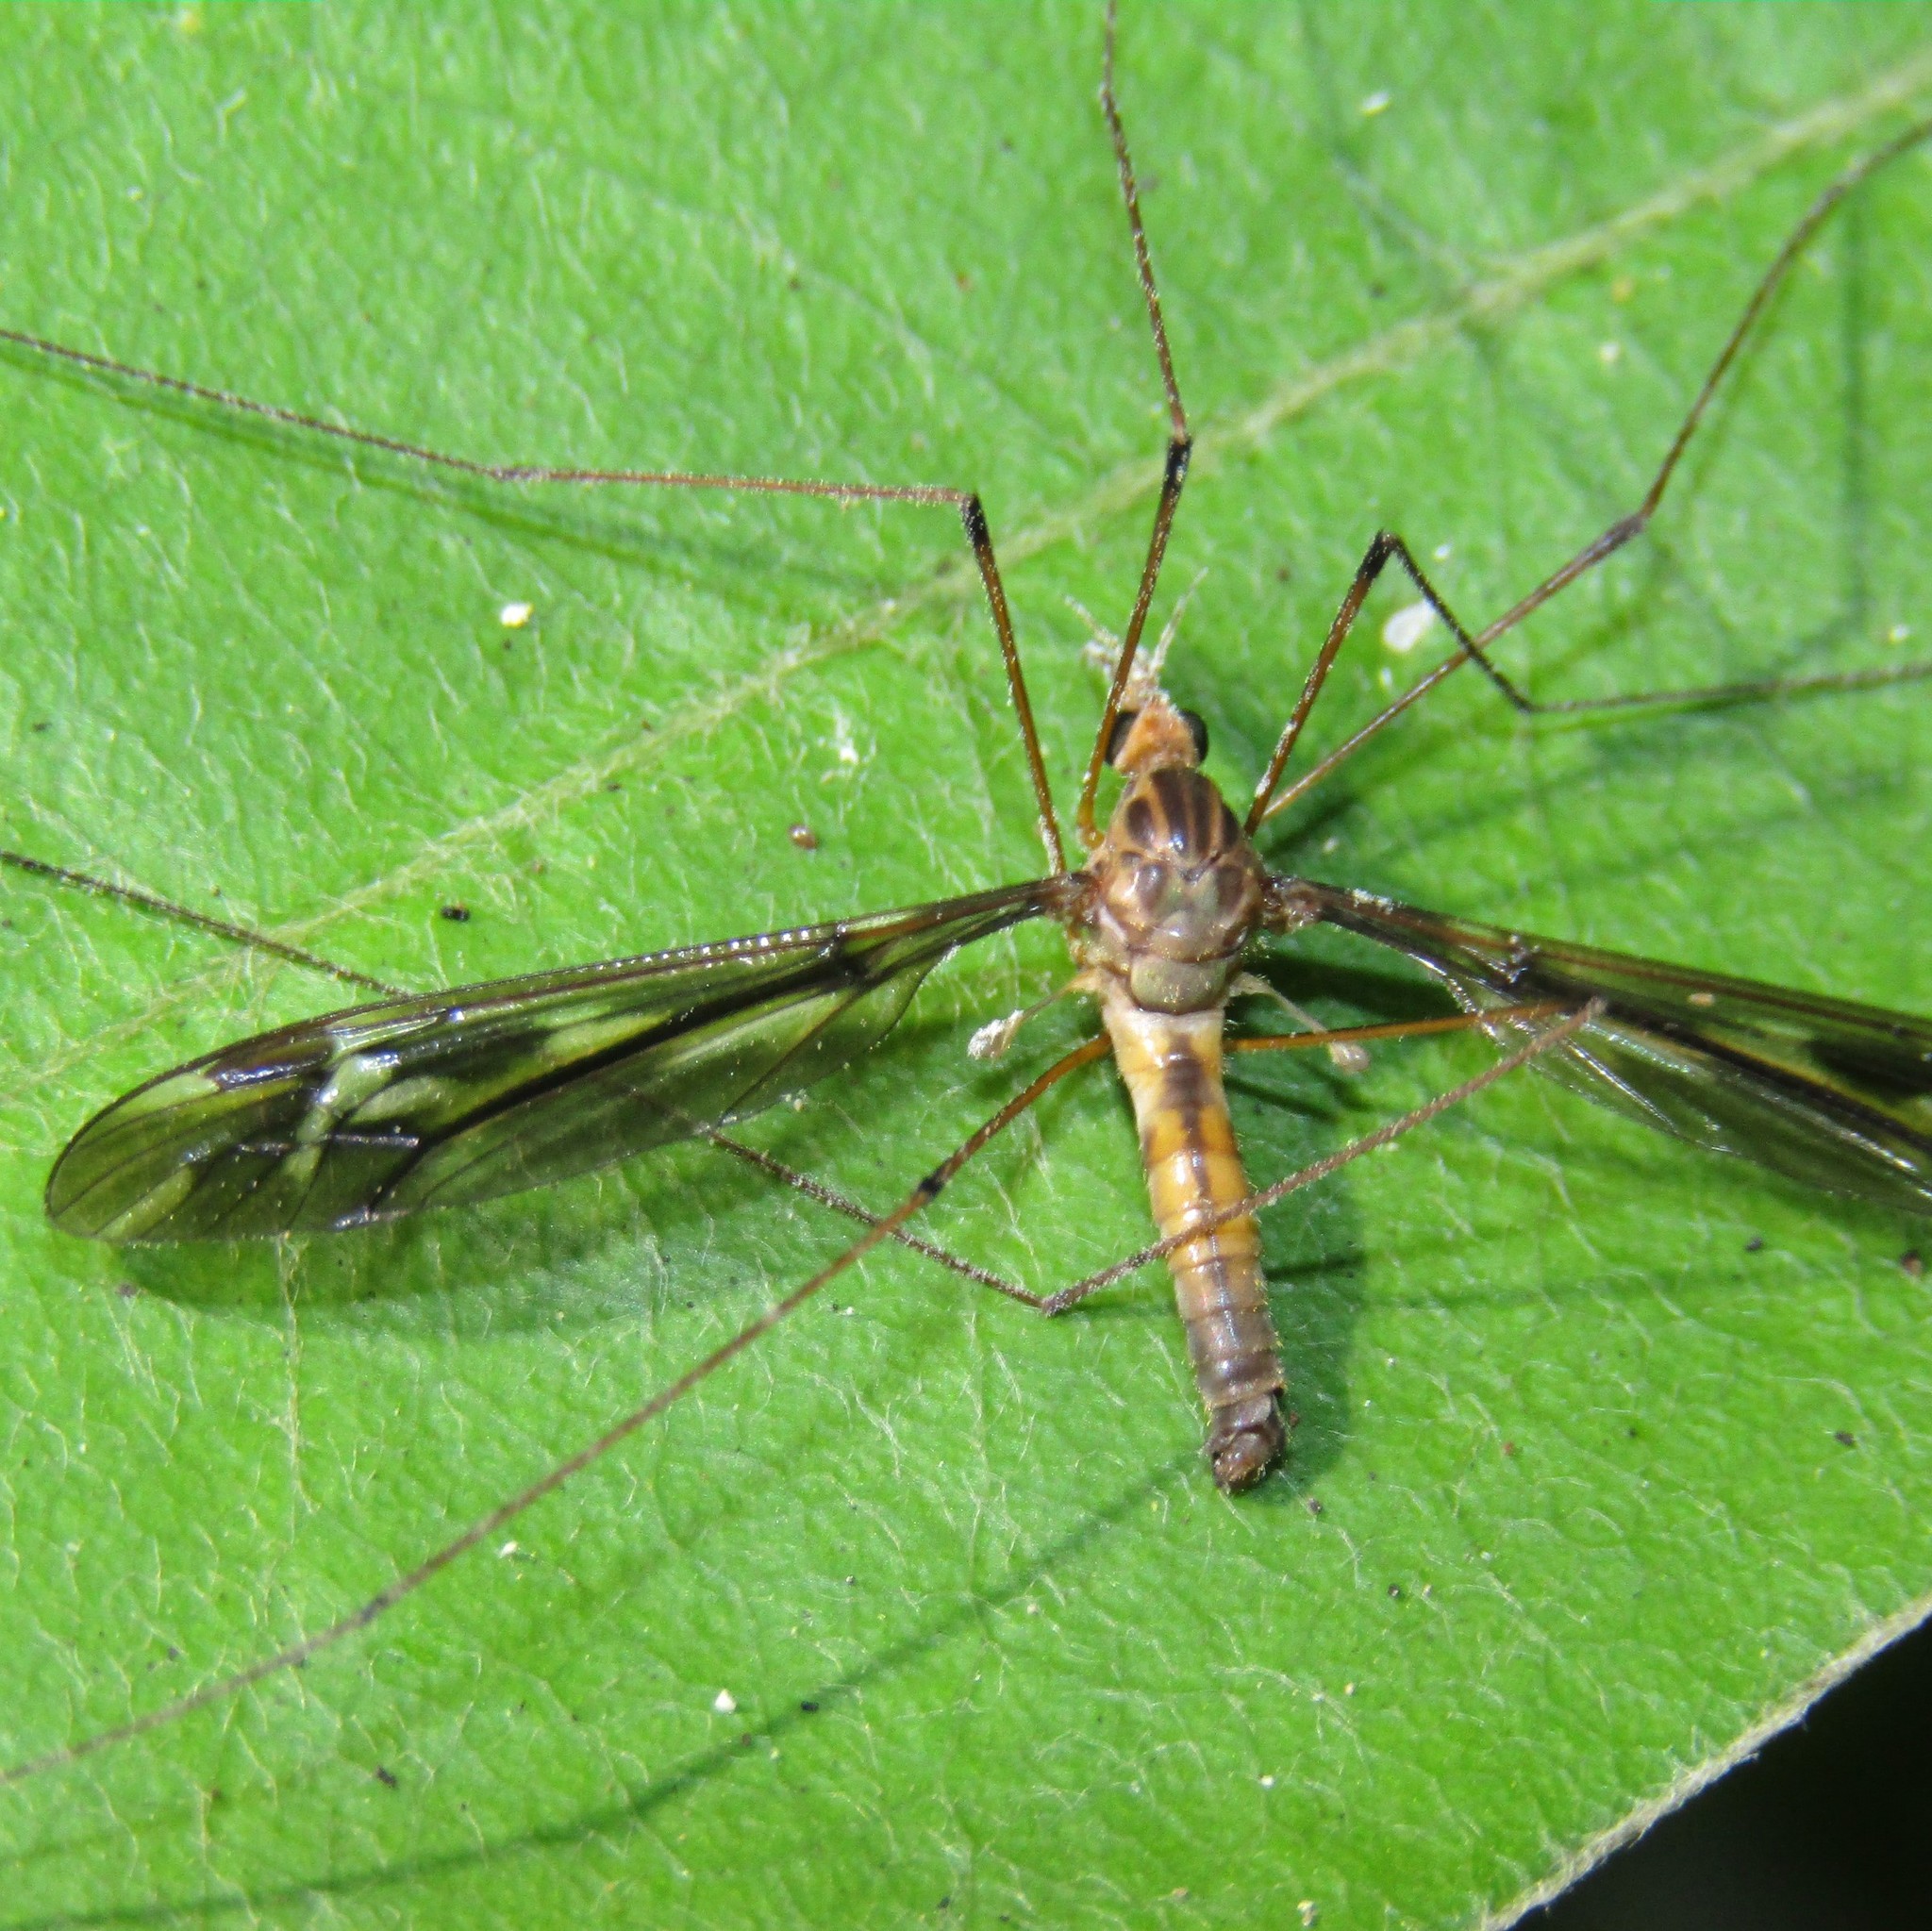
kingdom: Animalia
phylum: Arthropoda
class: Insecta
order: Diptera
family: Tipulidae
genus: Leptotarsus
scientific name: Leptotarsus huttoni
